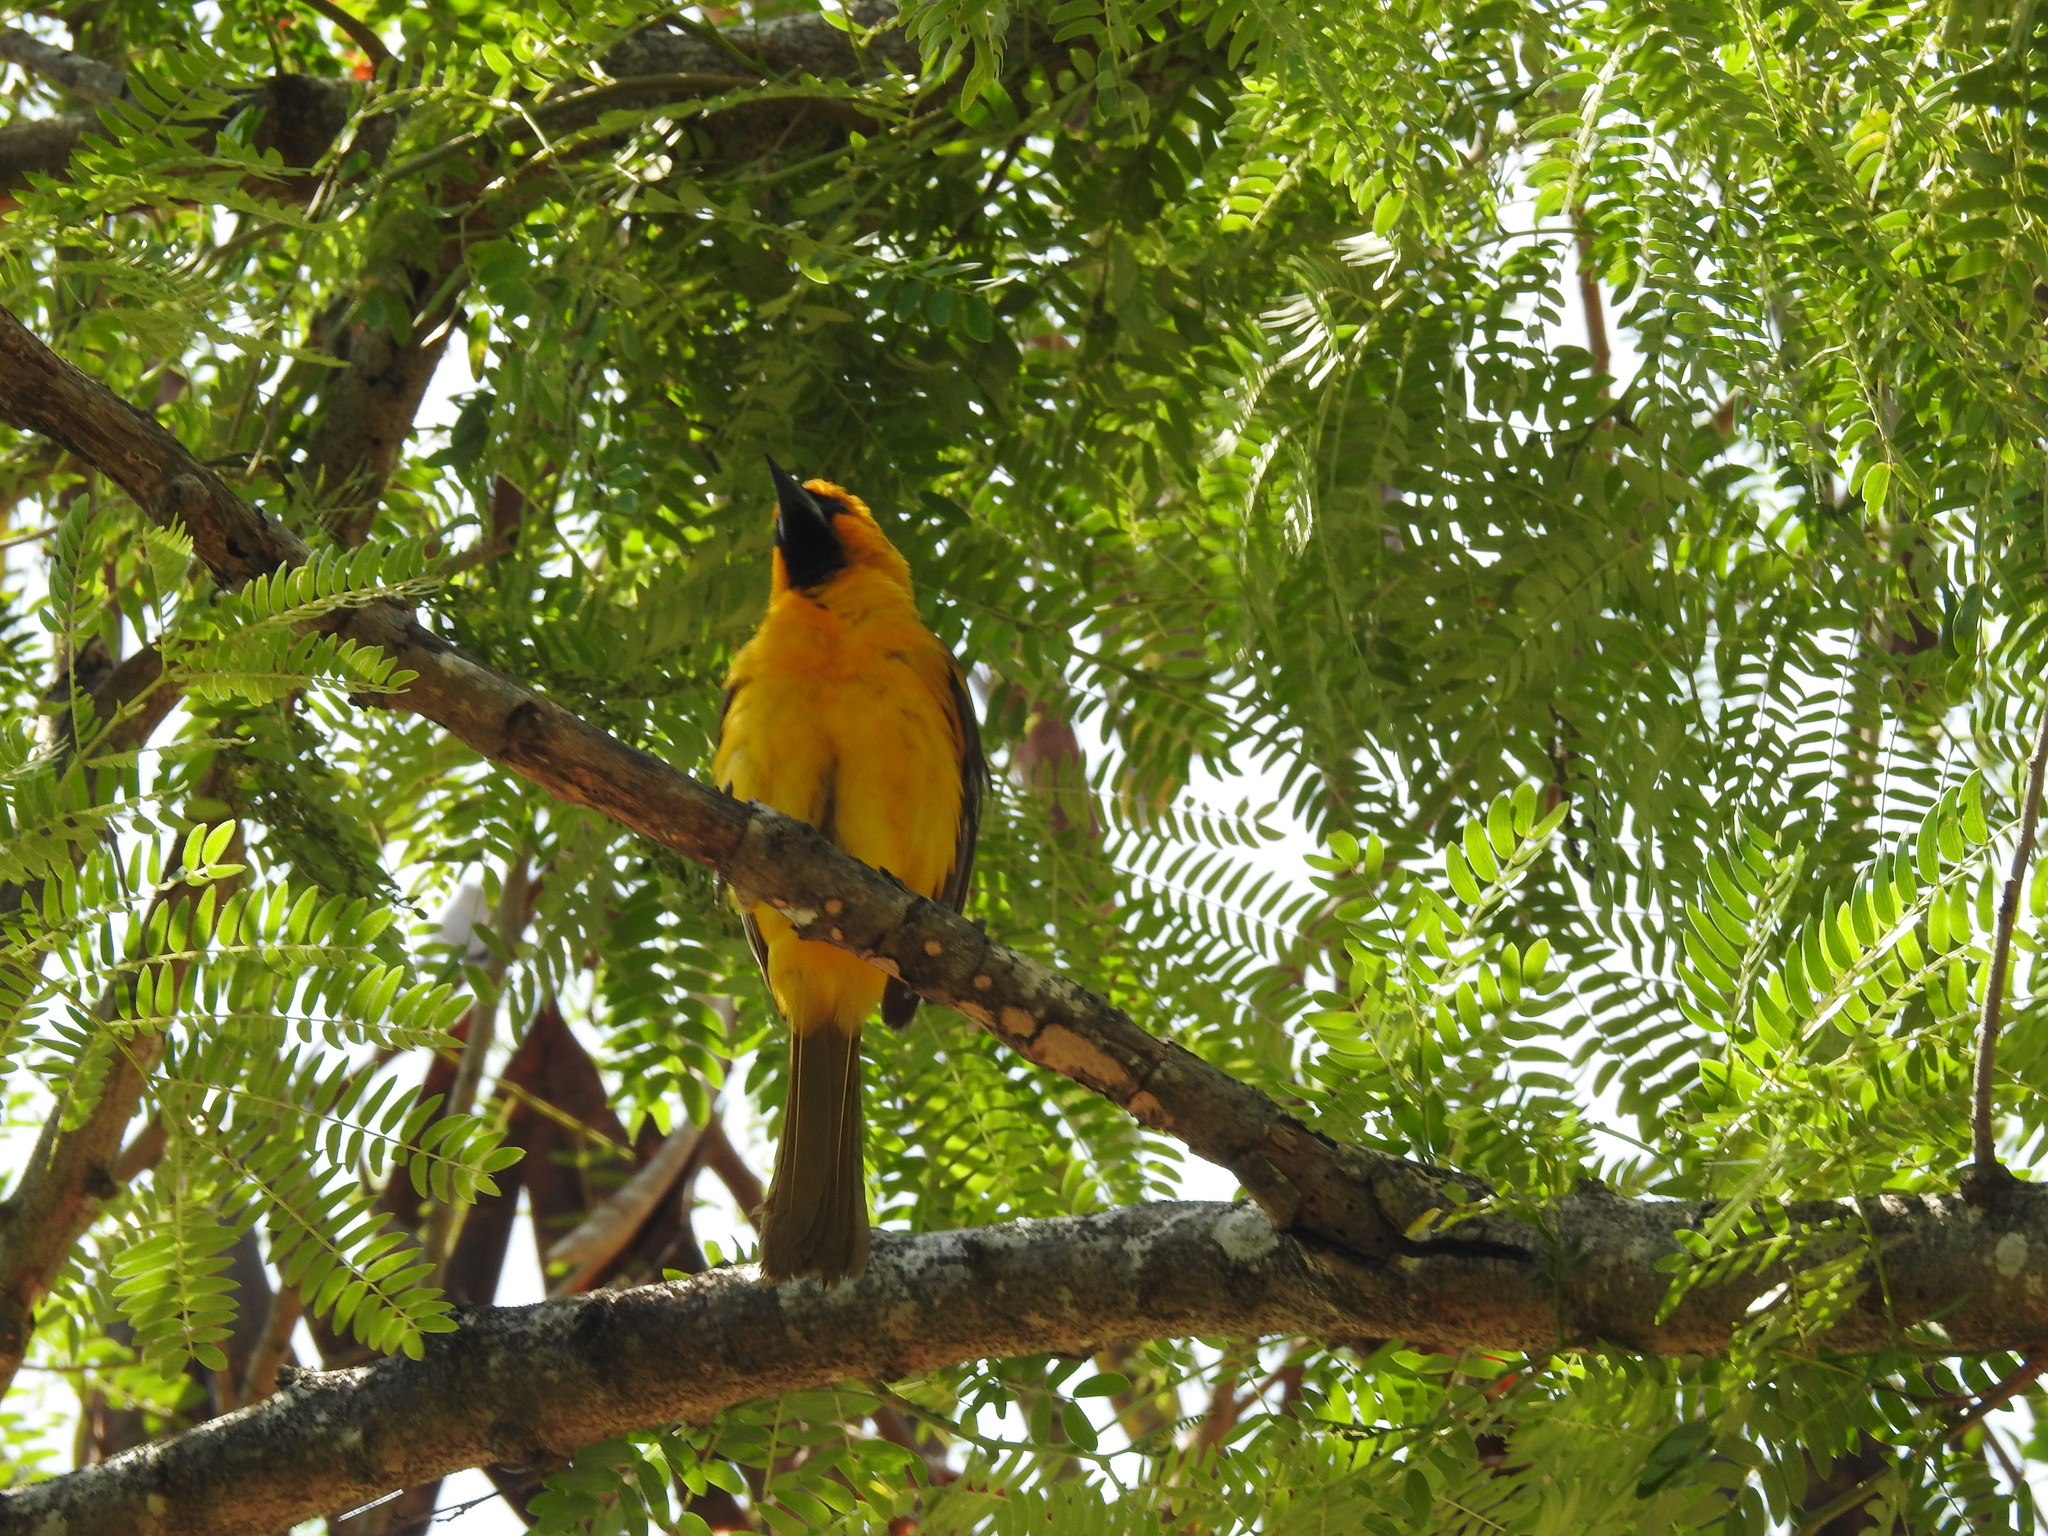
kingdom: Animalia
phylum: Chordata
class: Aves
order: Passeriformes
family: Icteridae
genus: Icterus
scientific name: Icterus auratus
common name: Orange oriole
